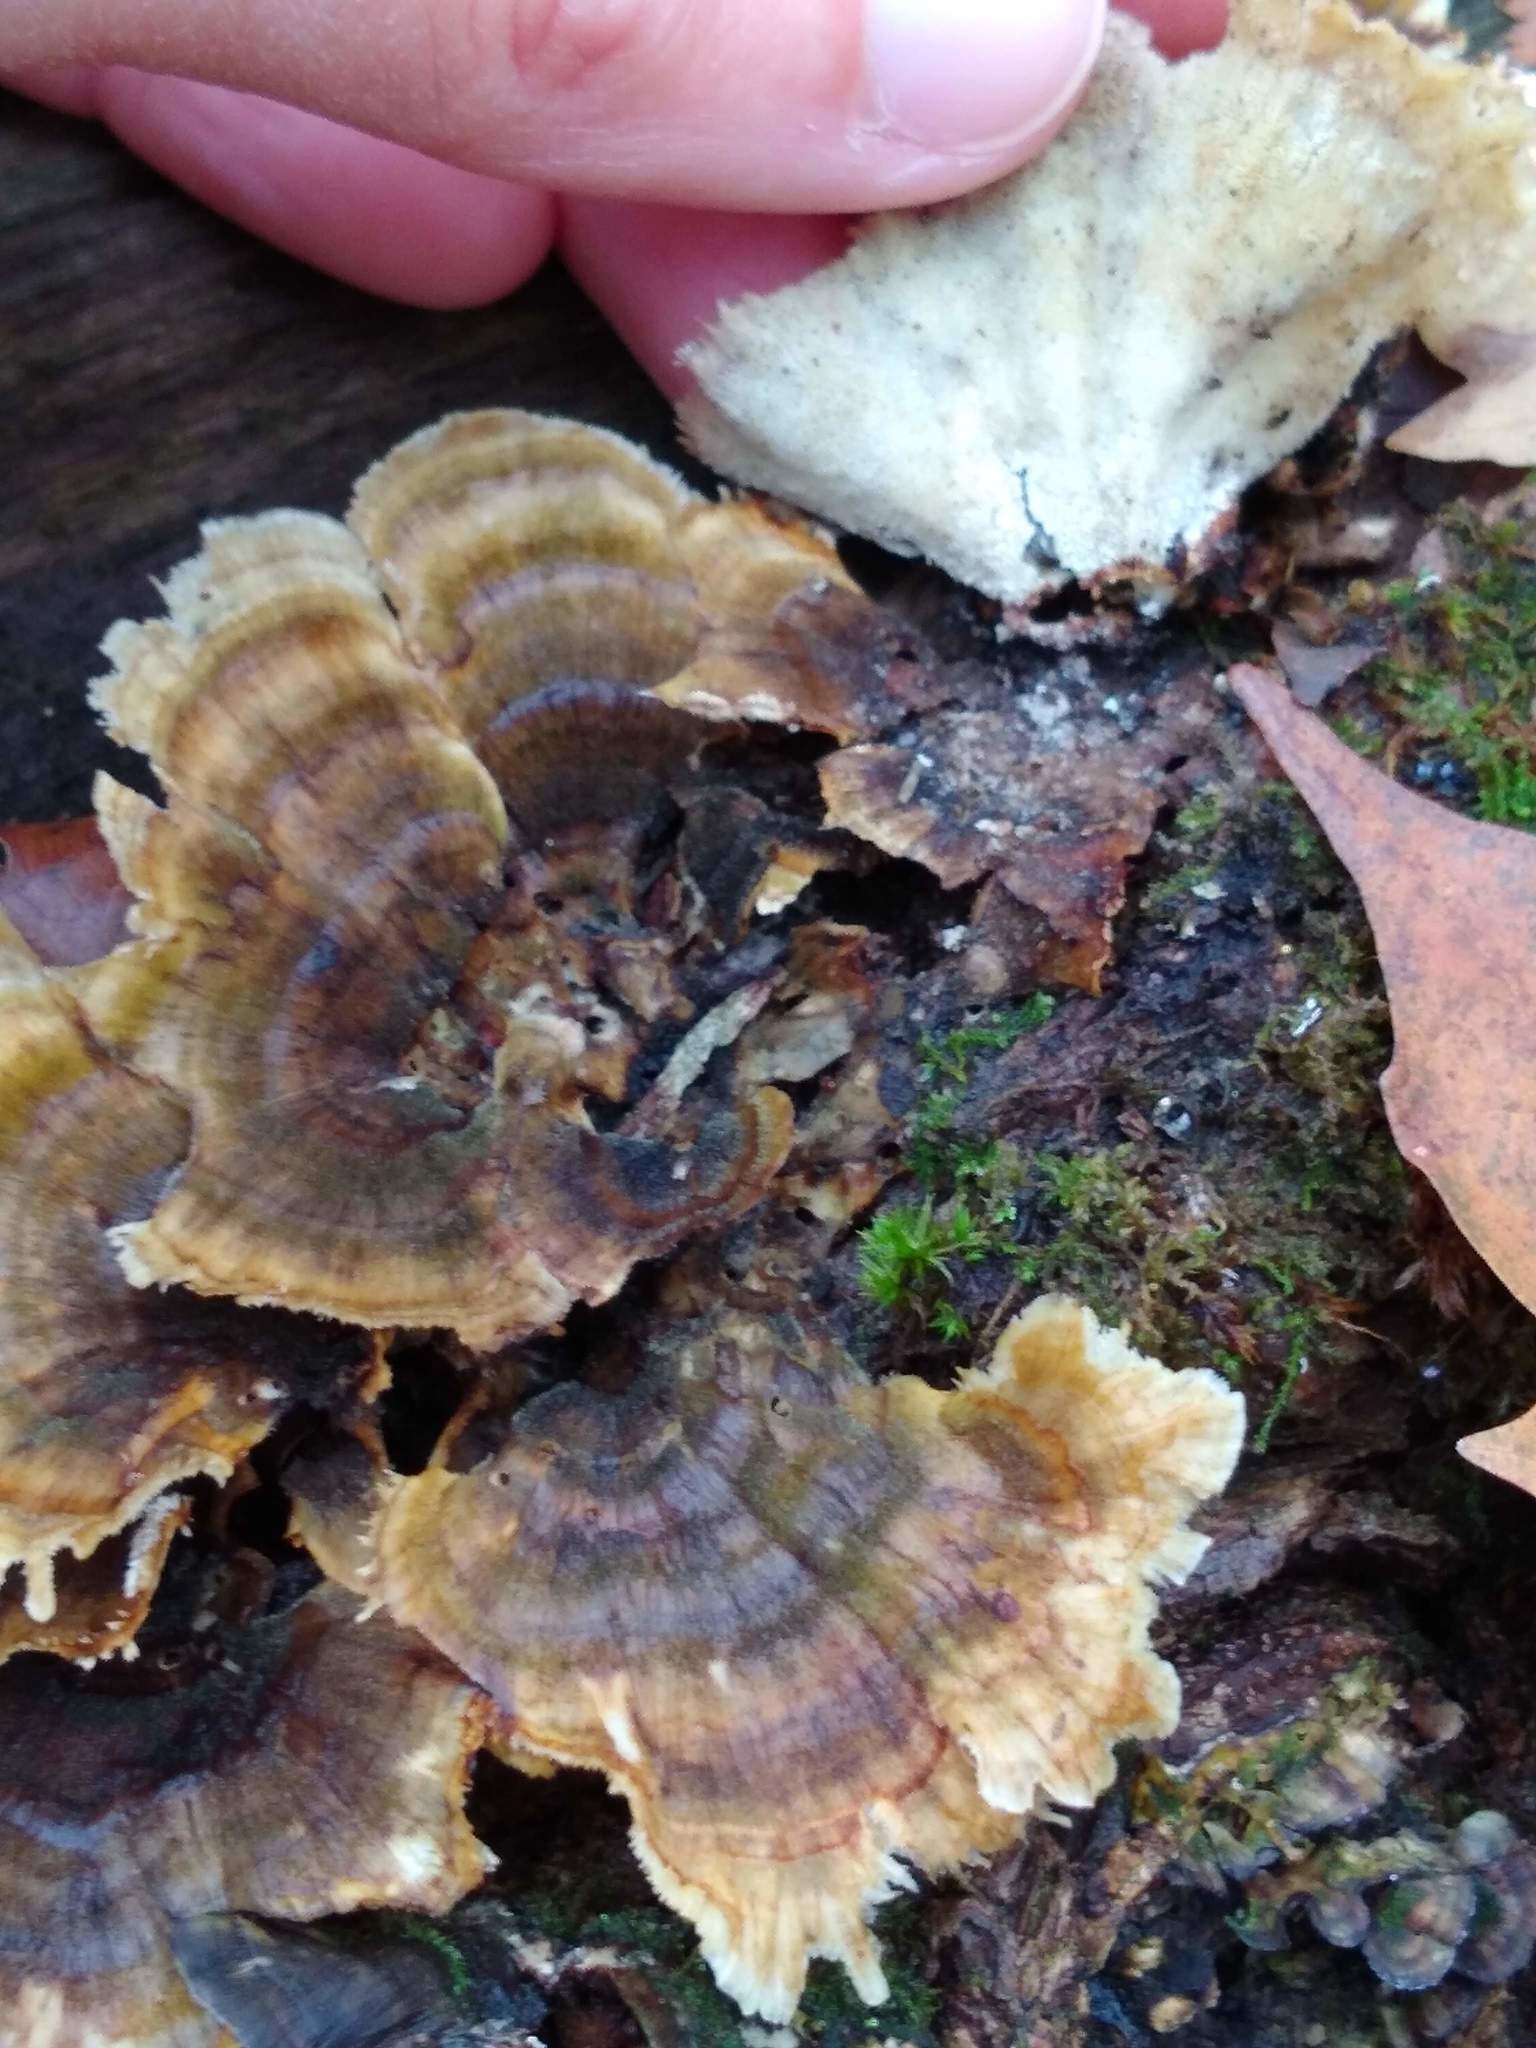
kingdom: Fungi
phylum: Basidiomycota
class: Agaricomycetes
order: Polyporales
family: Polyporaceae
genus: Trametes
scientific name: Trametes versicolor
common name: Turkeytail
